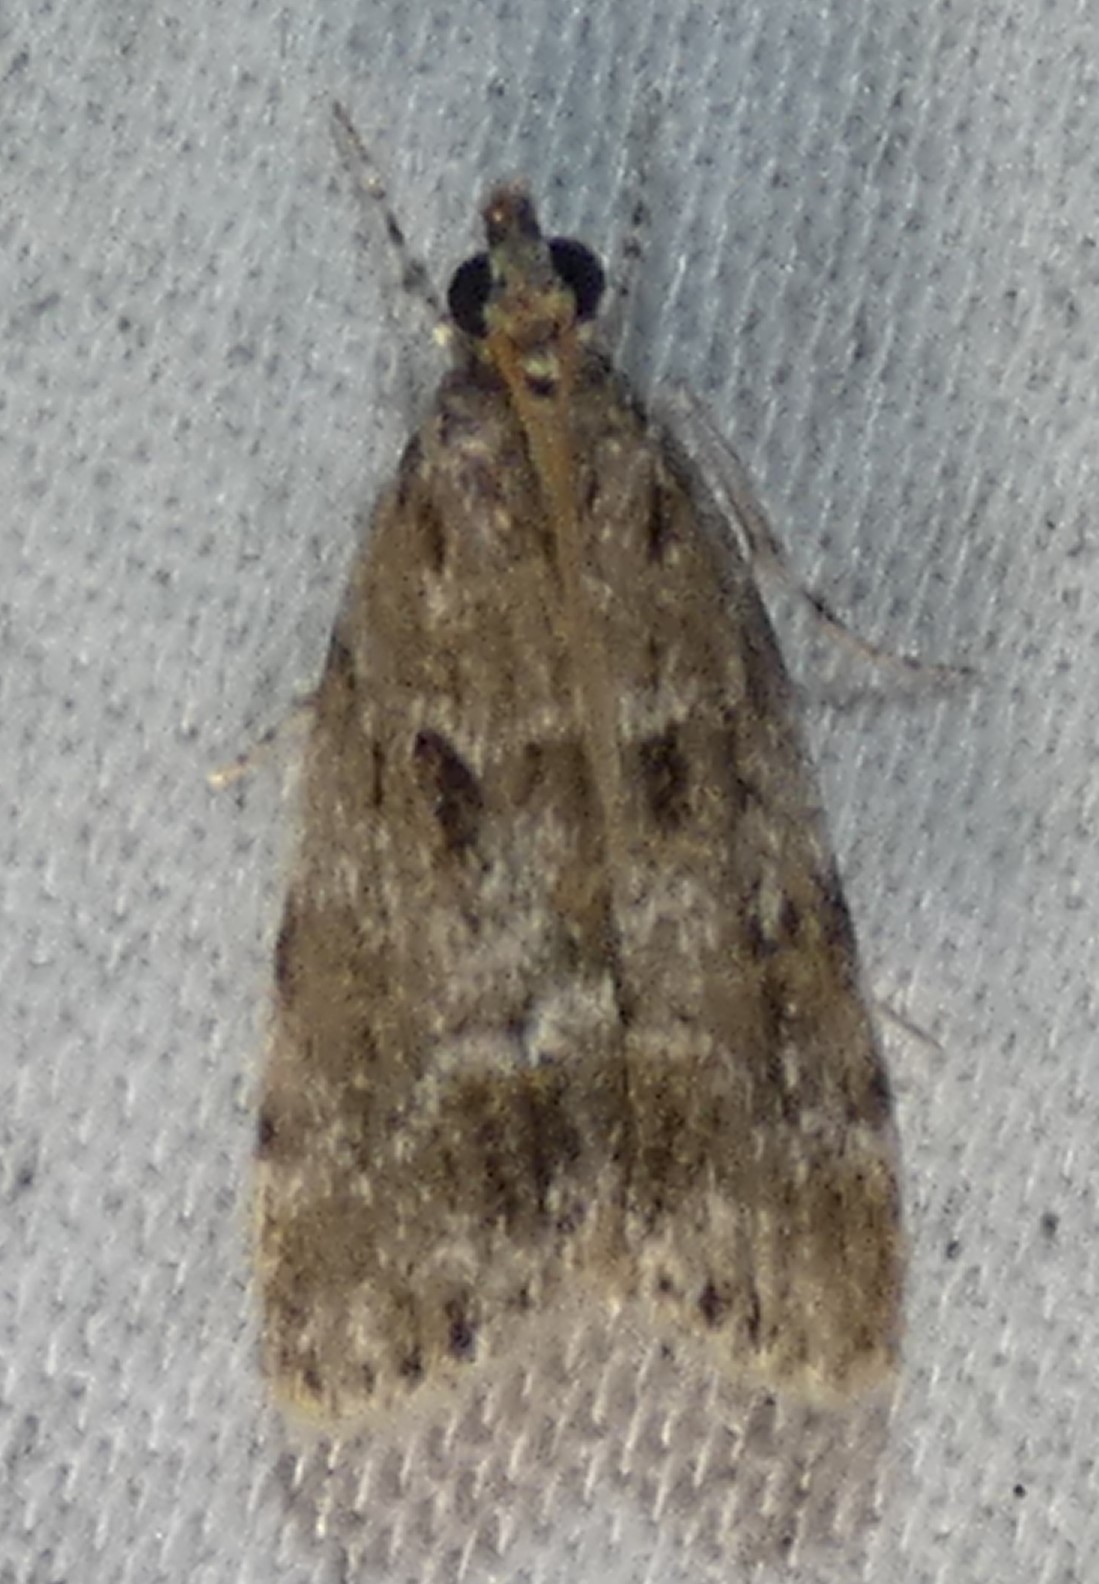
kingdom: Animalia
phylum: Arthropoda
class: Insecta
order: Lepidoptera
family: Crambidae
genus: Scoparia
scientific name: Scoparia basalis
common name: Many-spotted scoparia moth
